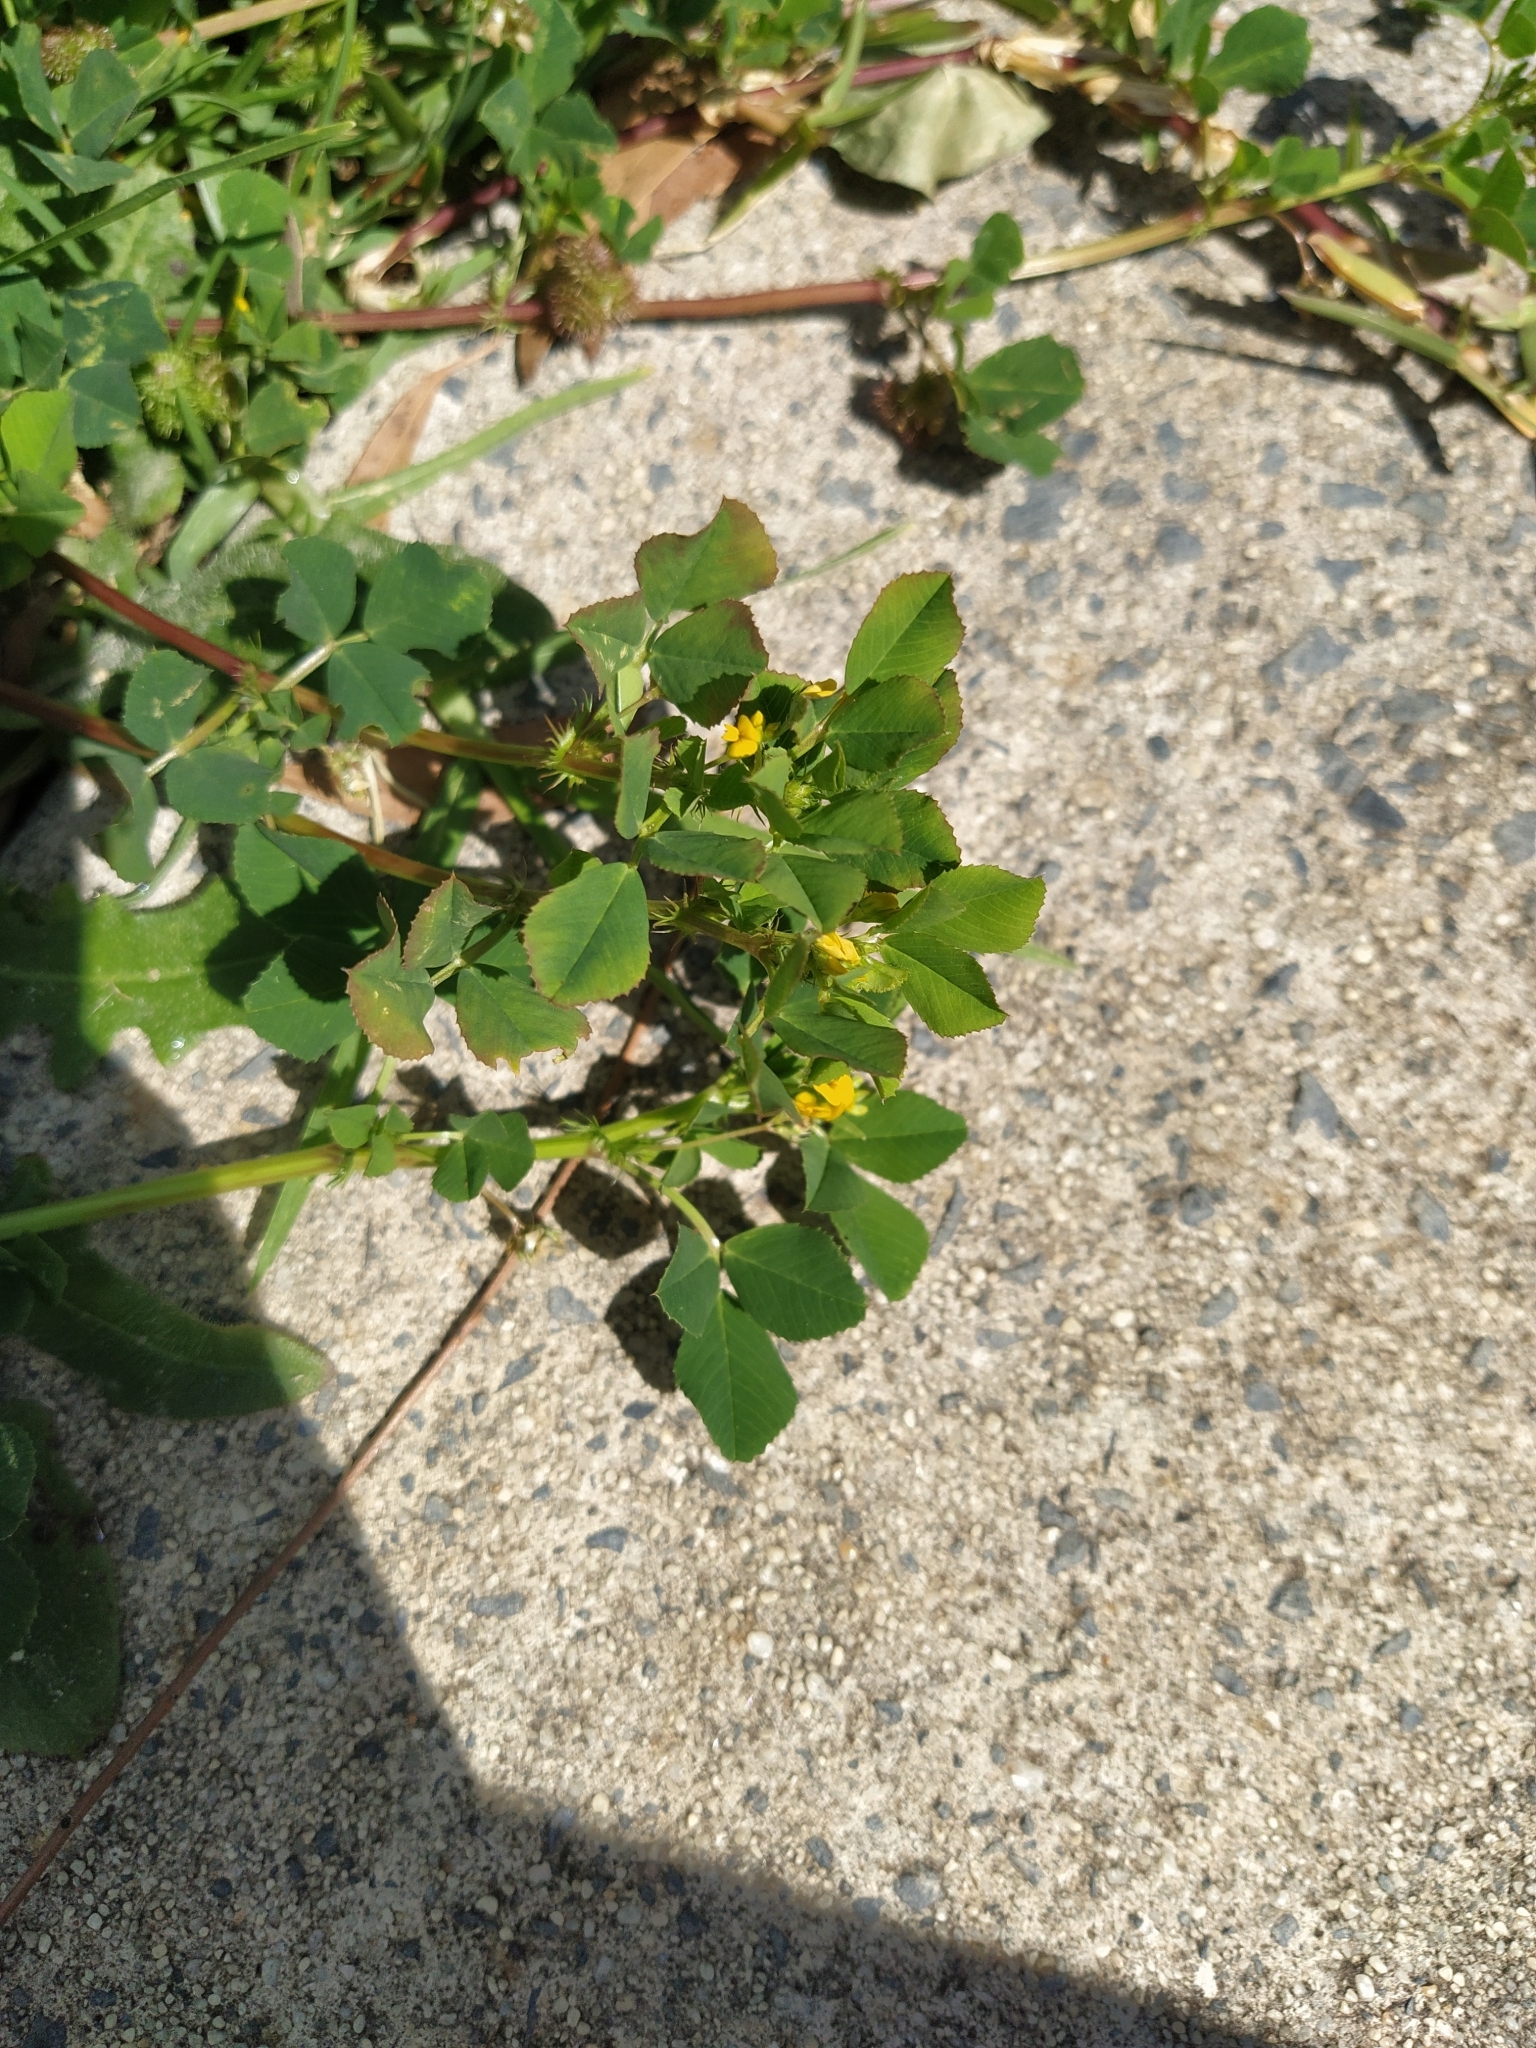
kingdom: Plantae
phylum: Tracheophyta
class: Magnoliopsida
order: Fabales
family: Fabaceae
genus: Medicago
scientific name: Medicago polymorpha
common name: Burclover
